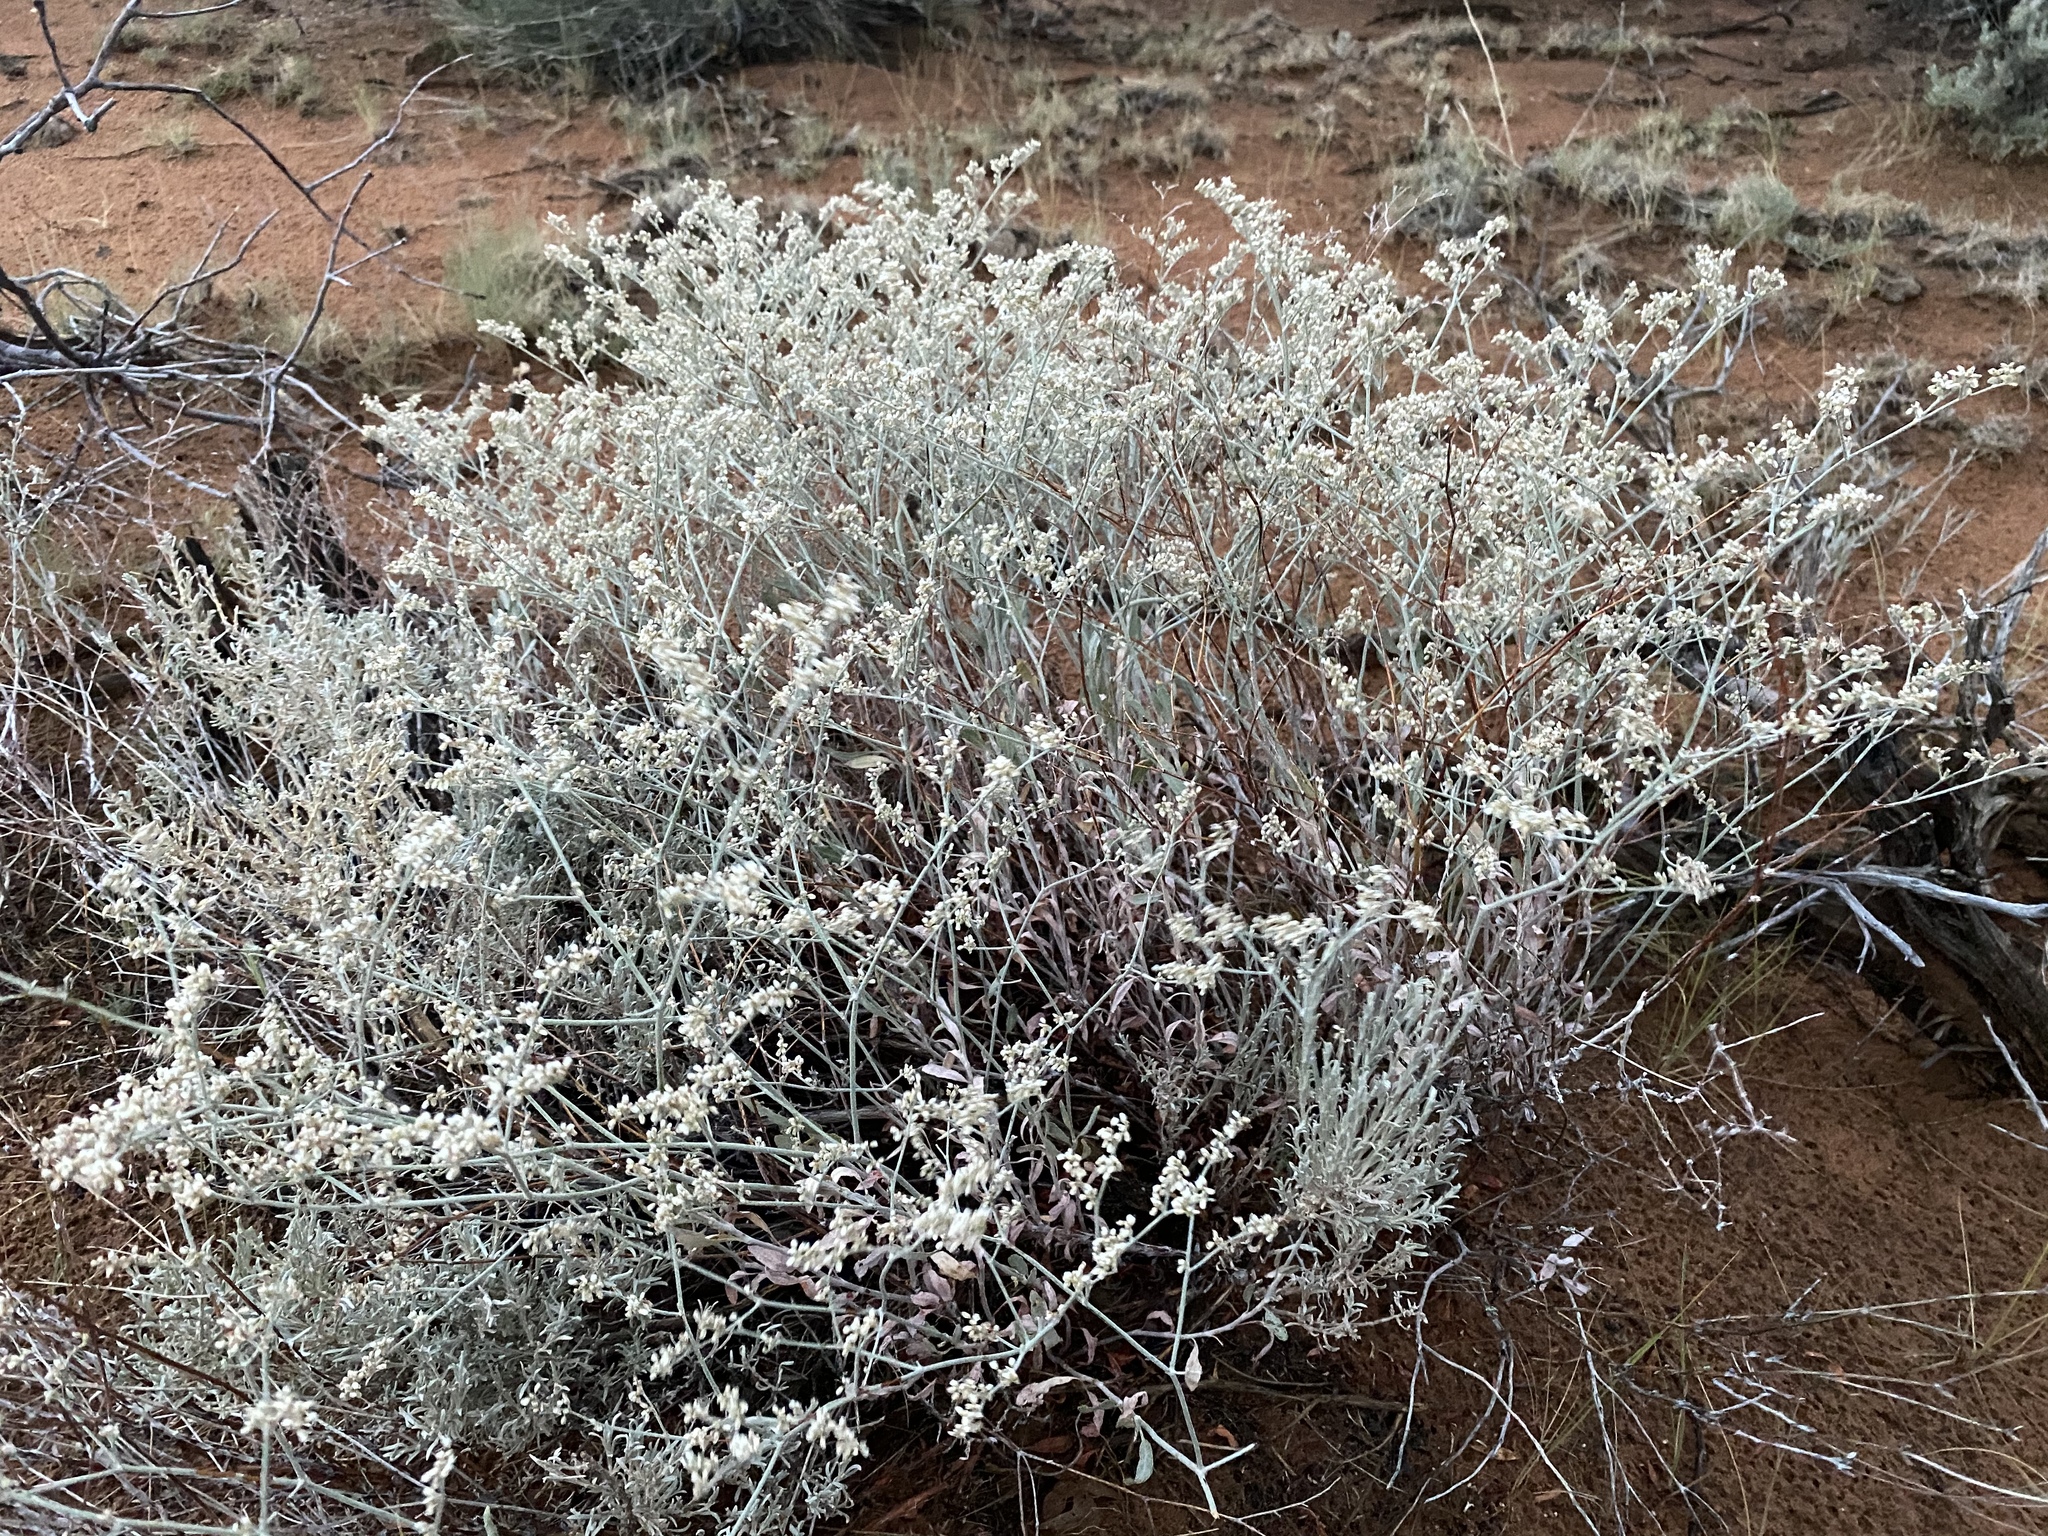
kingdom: Plantae
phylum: Tracheophyta
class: Magnoliopsida
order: Caryophyllales
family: Polygonaceae
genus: Eriogonum
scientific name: Eriogonum leptocladon
